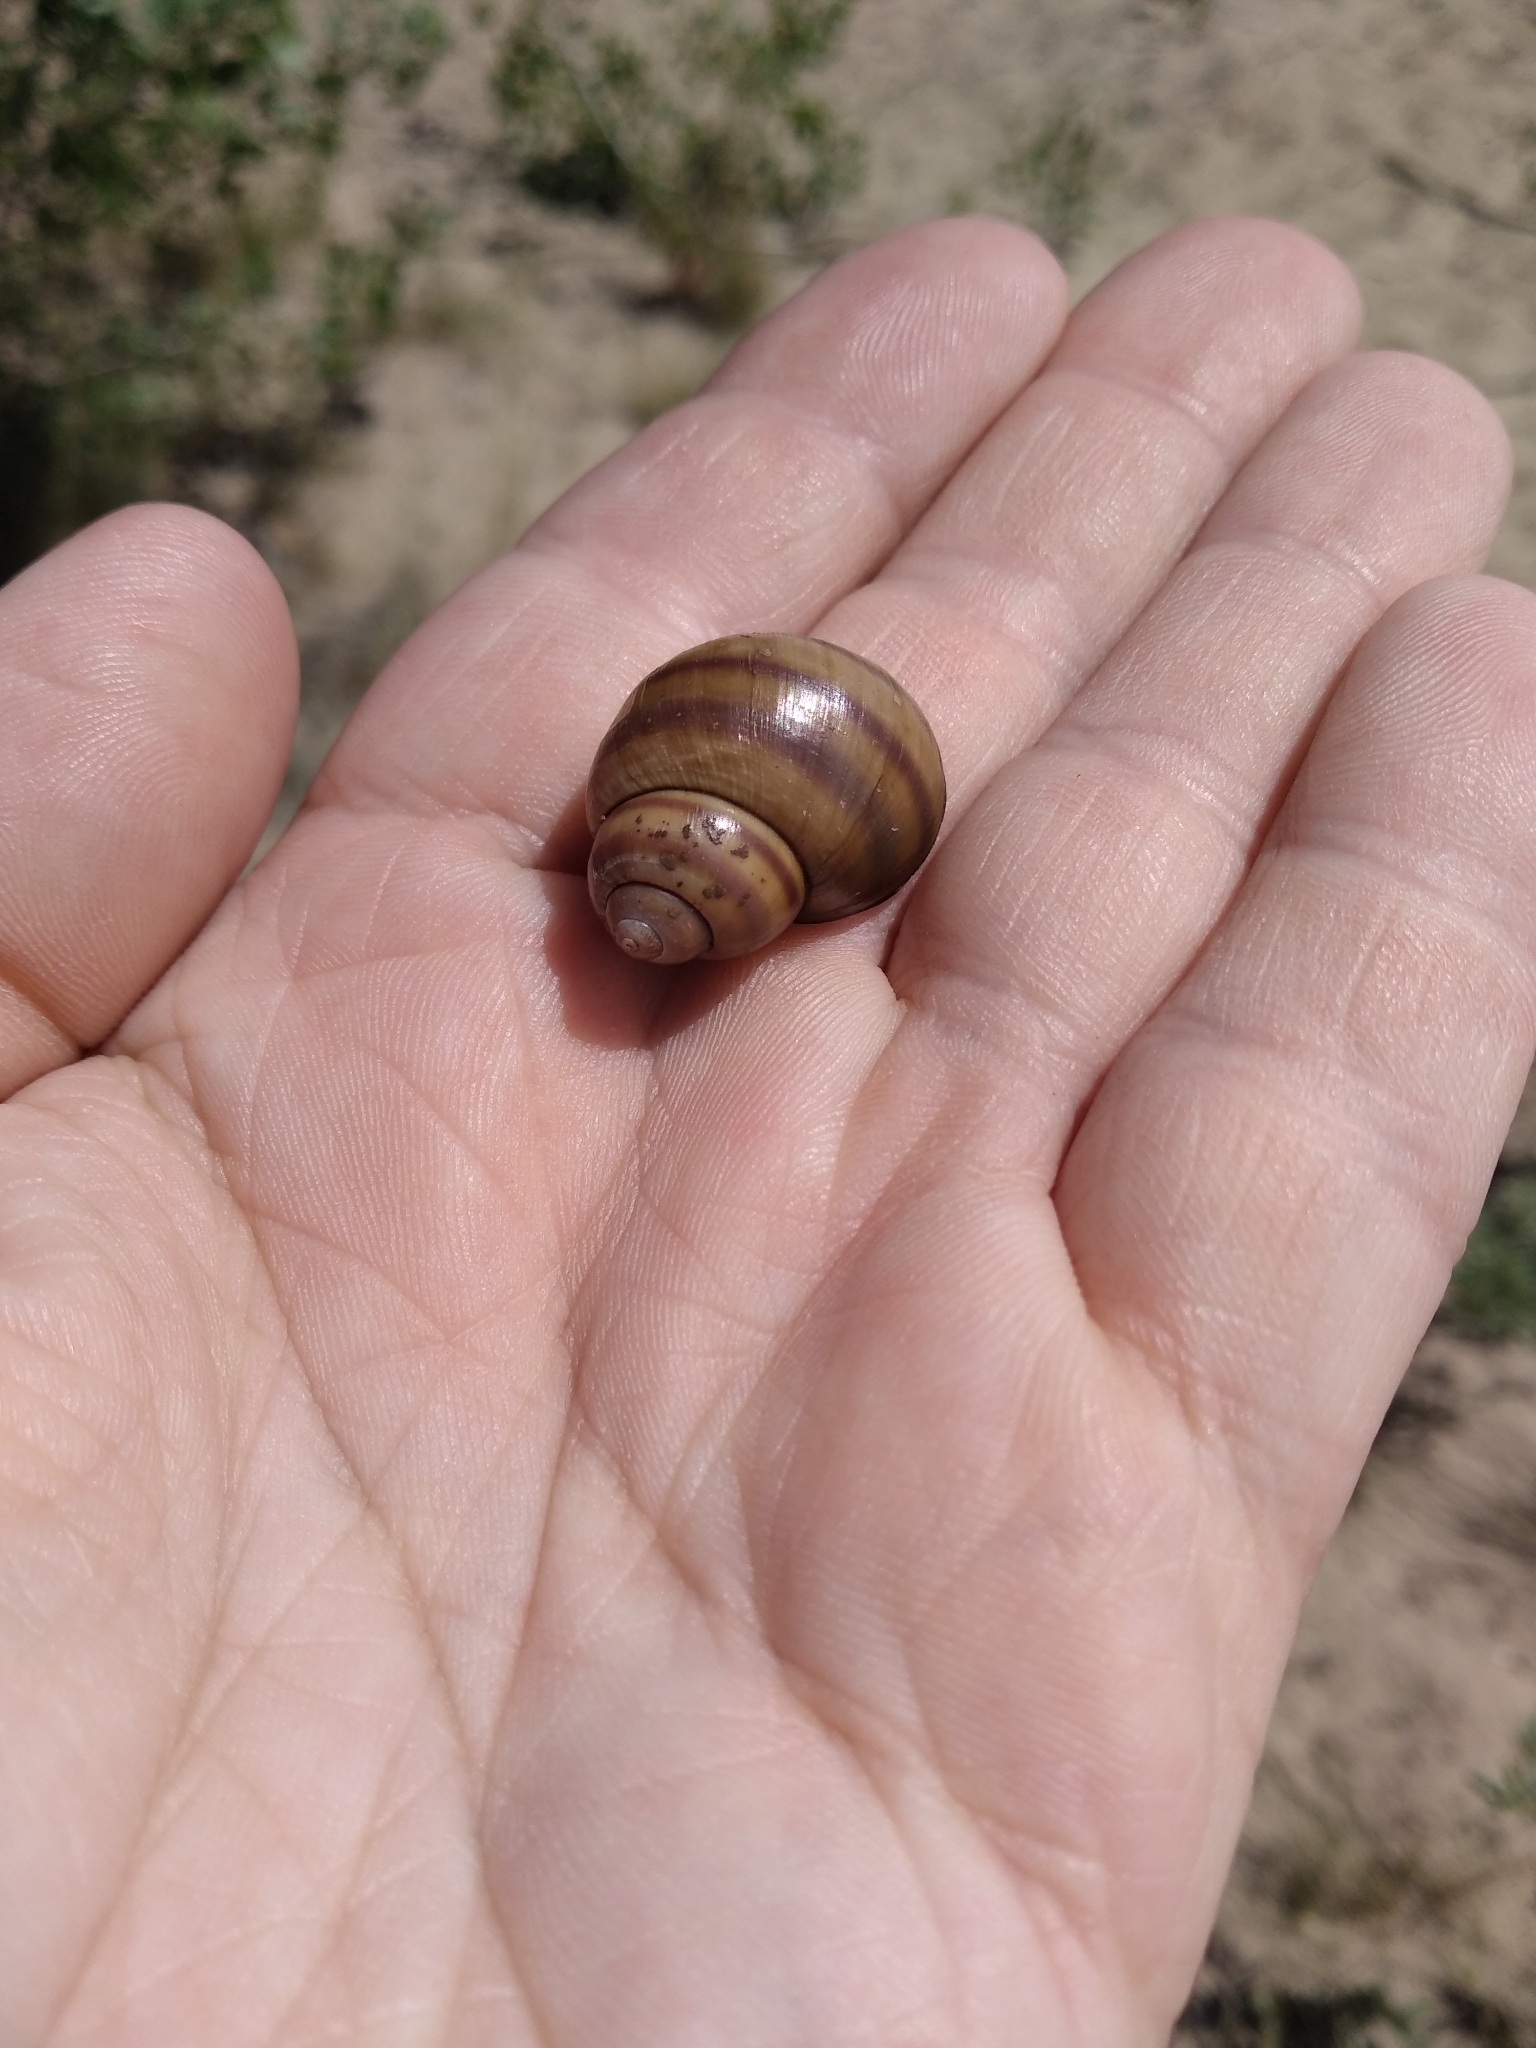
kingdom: Animalia
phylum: Mollusca
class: Gastropoda
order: Architaenioglossa
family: Viviparidae
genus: Viviparus
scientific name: Viviparus viviparus
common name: River snail
